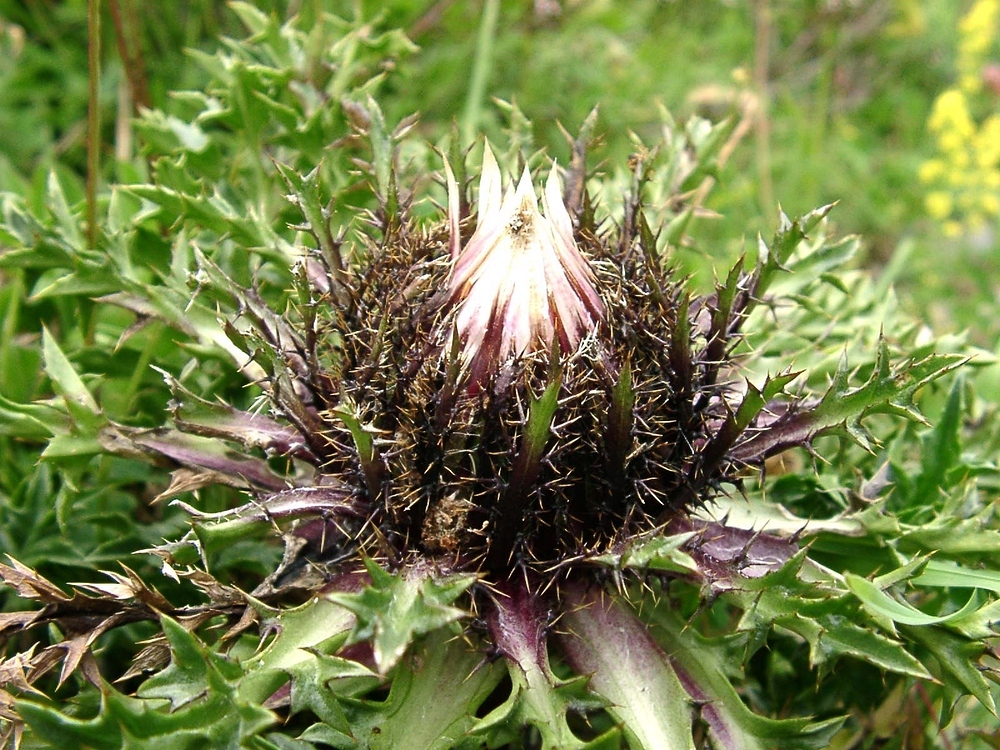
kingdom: Plantae
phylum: Tracheophyta
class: Magnoliopsida
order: Asterales
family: Asteraceae
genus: Carlina
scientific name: Carlina acaulis
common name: Stemless carline thistle
